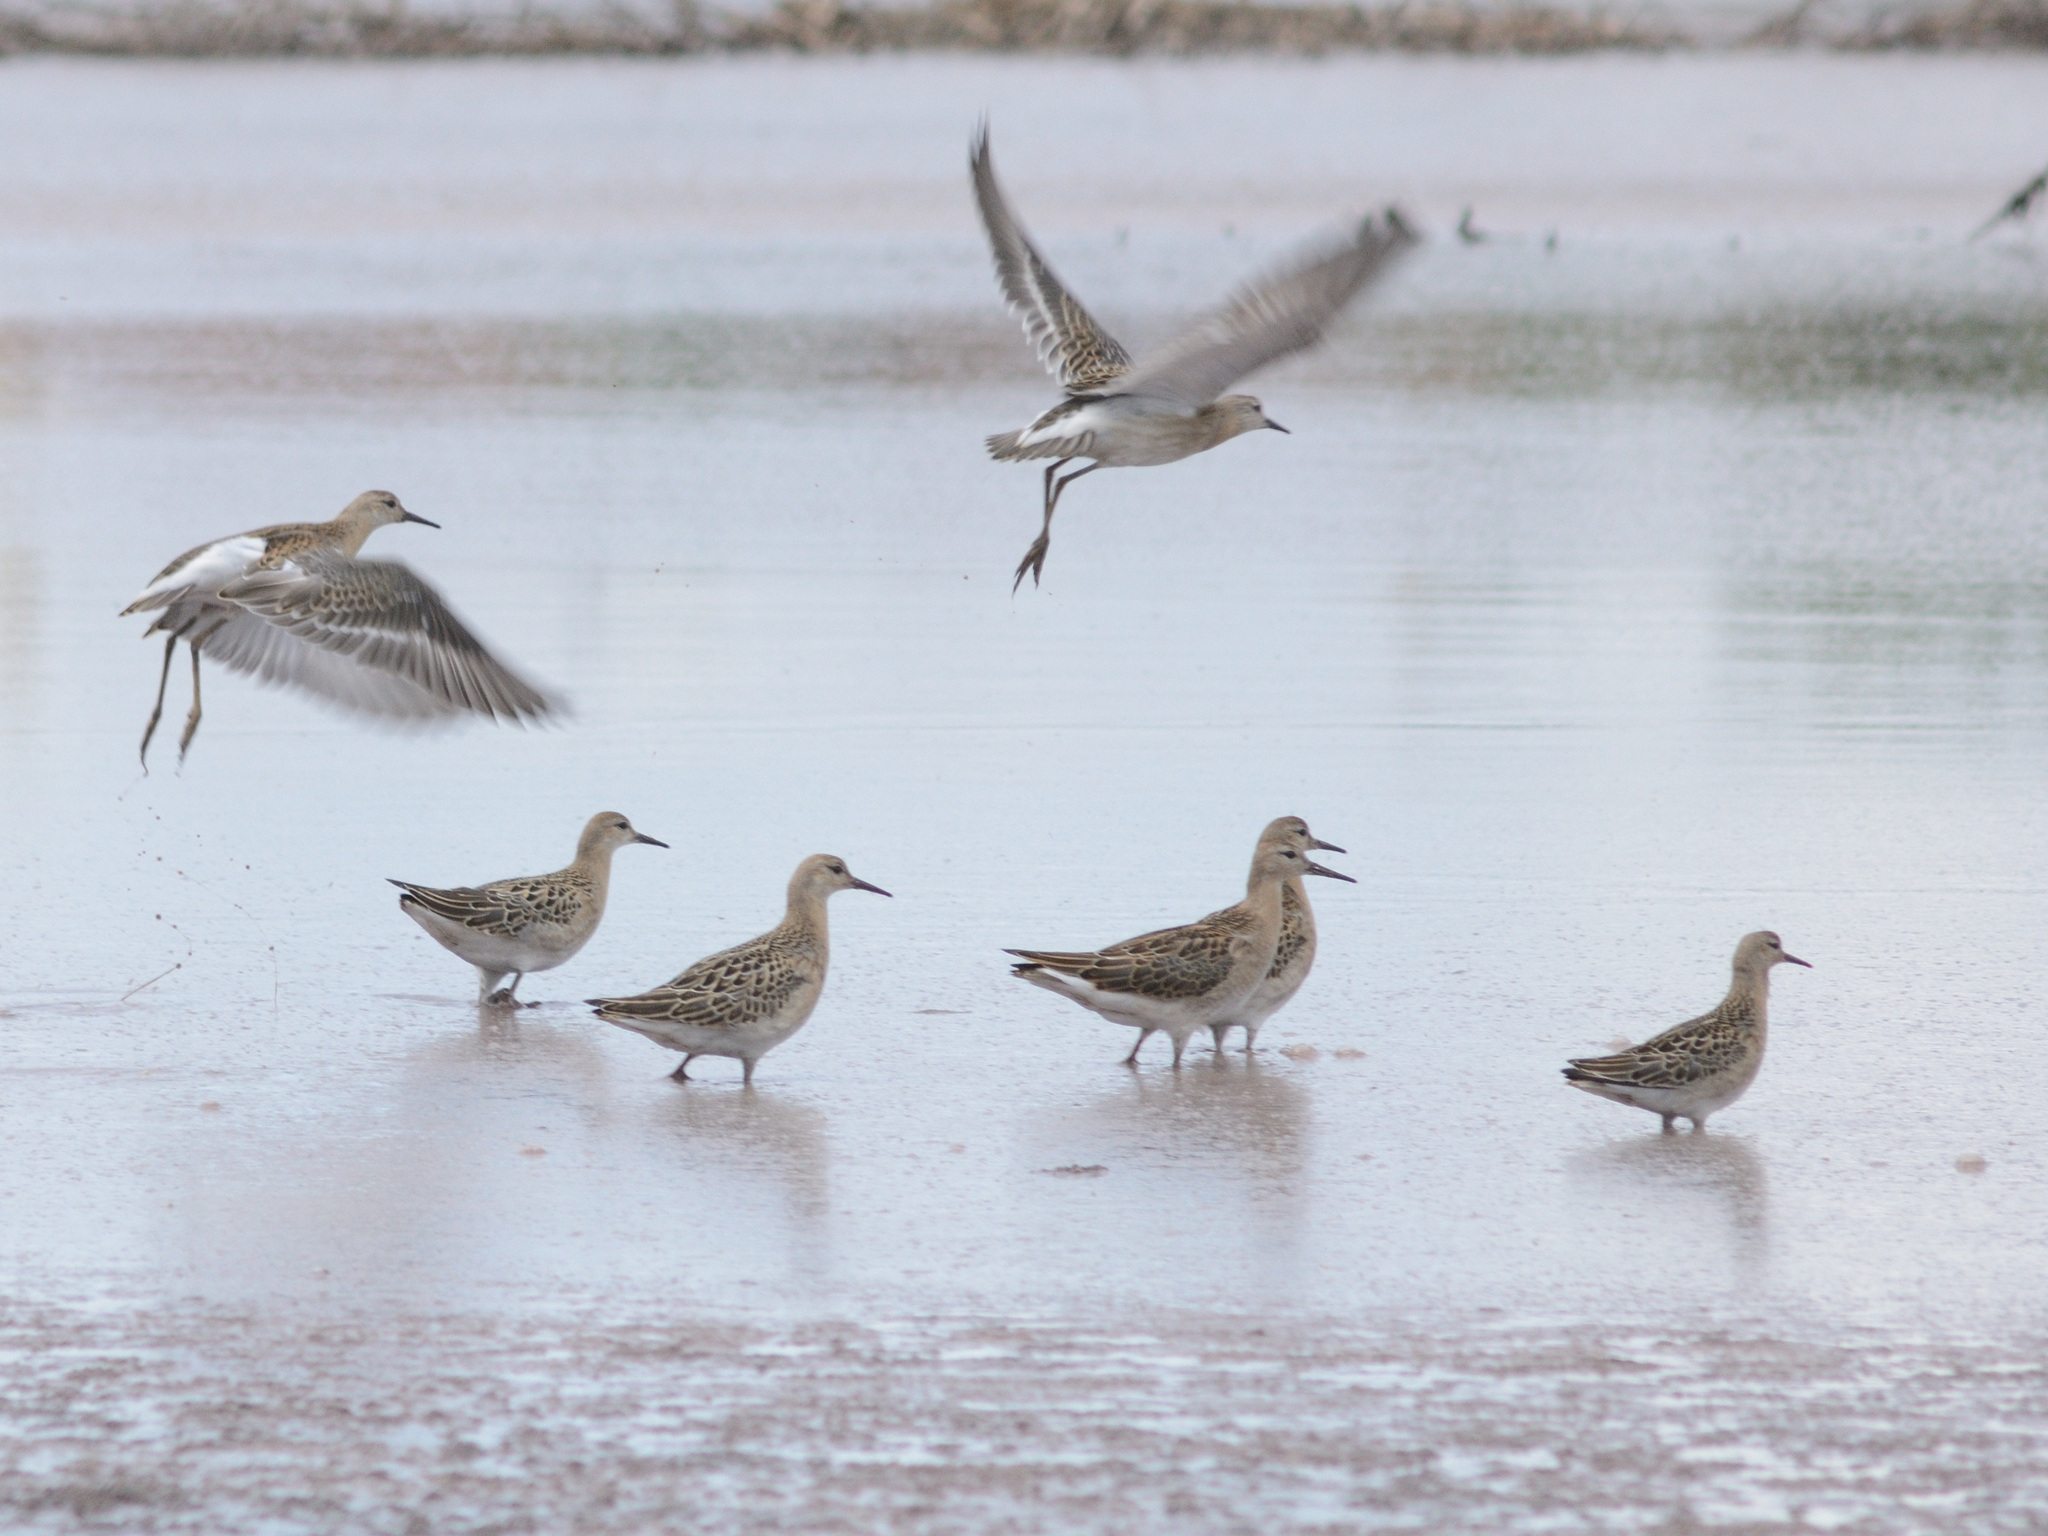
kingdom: Animalia
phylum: Chordata
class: Aves
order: Charadriiformes
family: Scolopacidae
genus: Calidris
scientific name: Calidris pugnax
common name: Ruff
